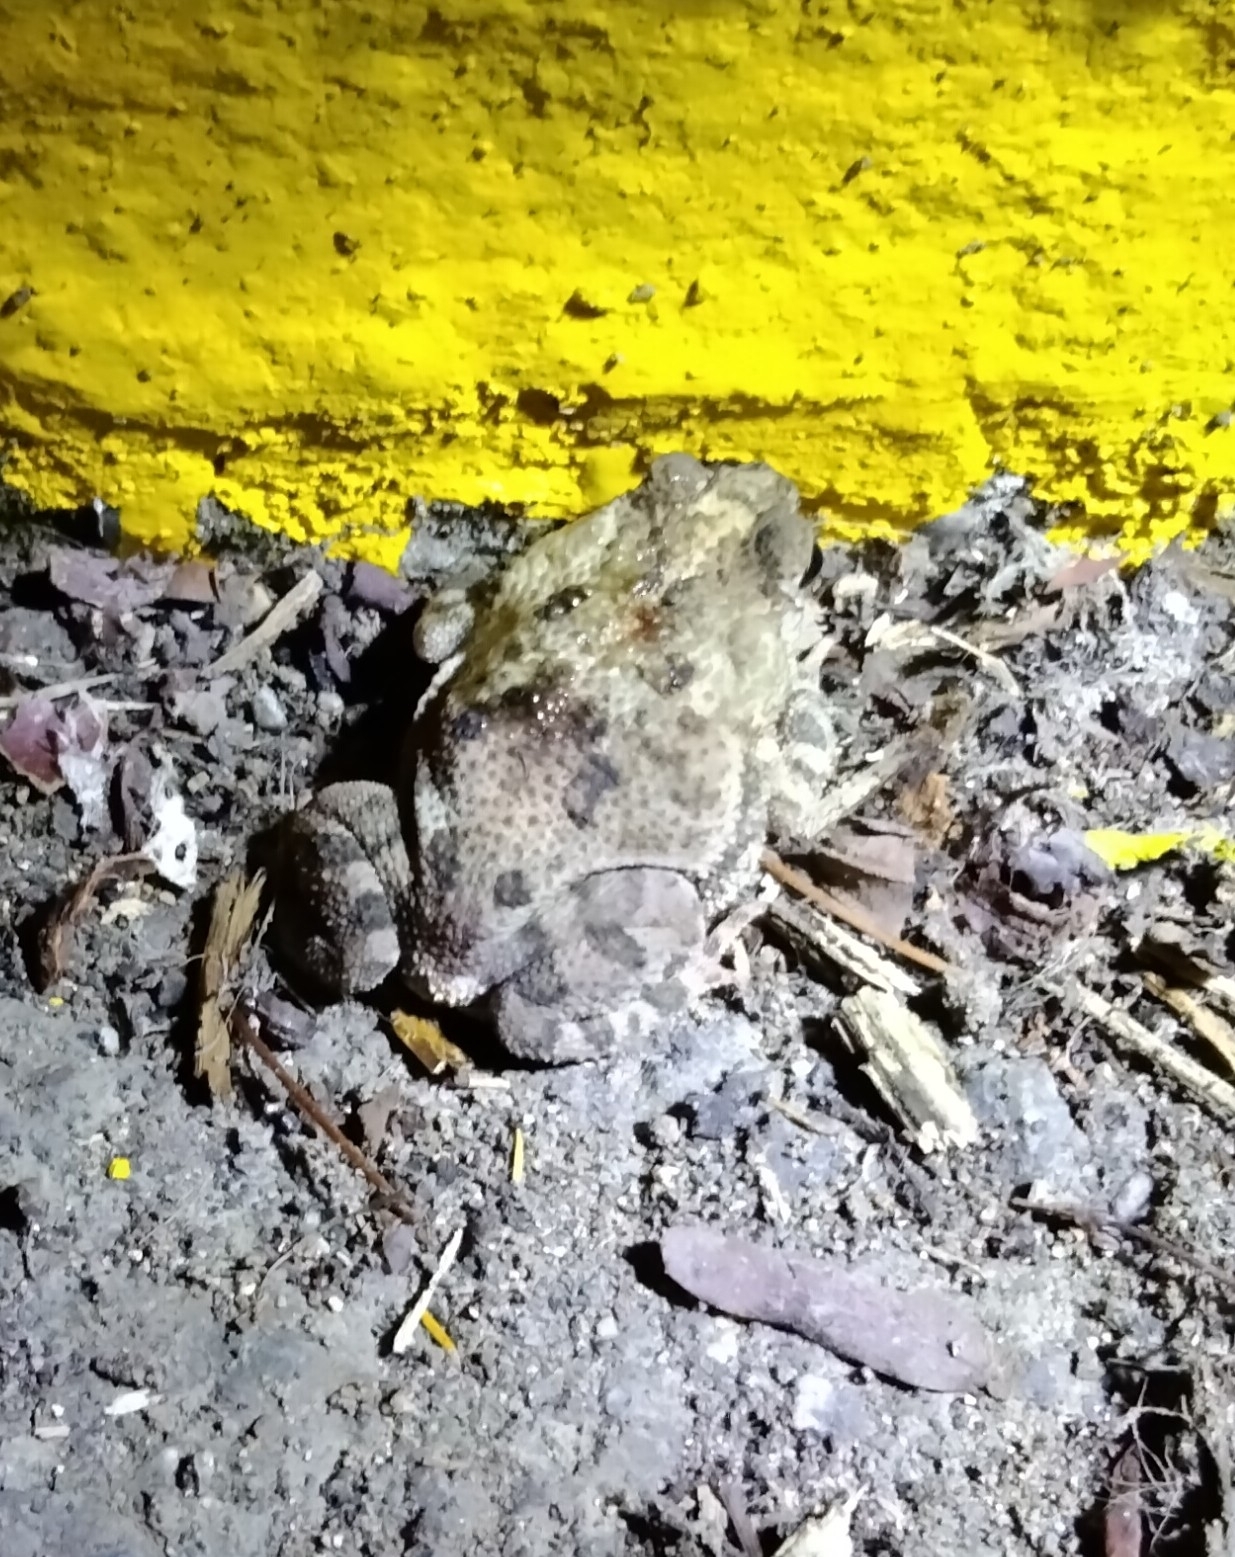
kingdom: Animalia
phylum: Chordata
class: Amphibia
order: Anura
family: Bufonidae
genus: Rhinella
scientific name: Rhinella humboldti
